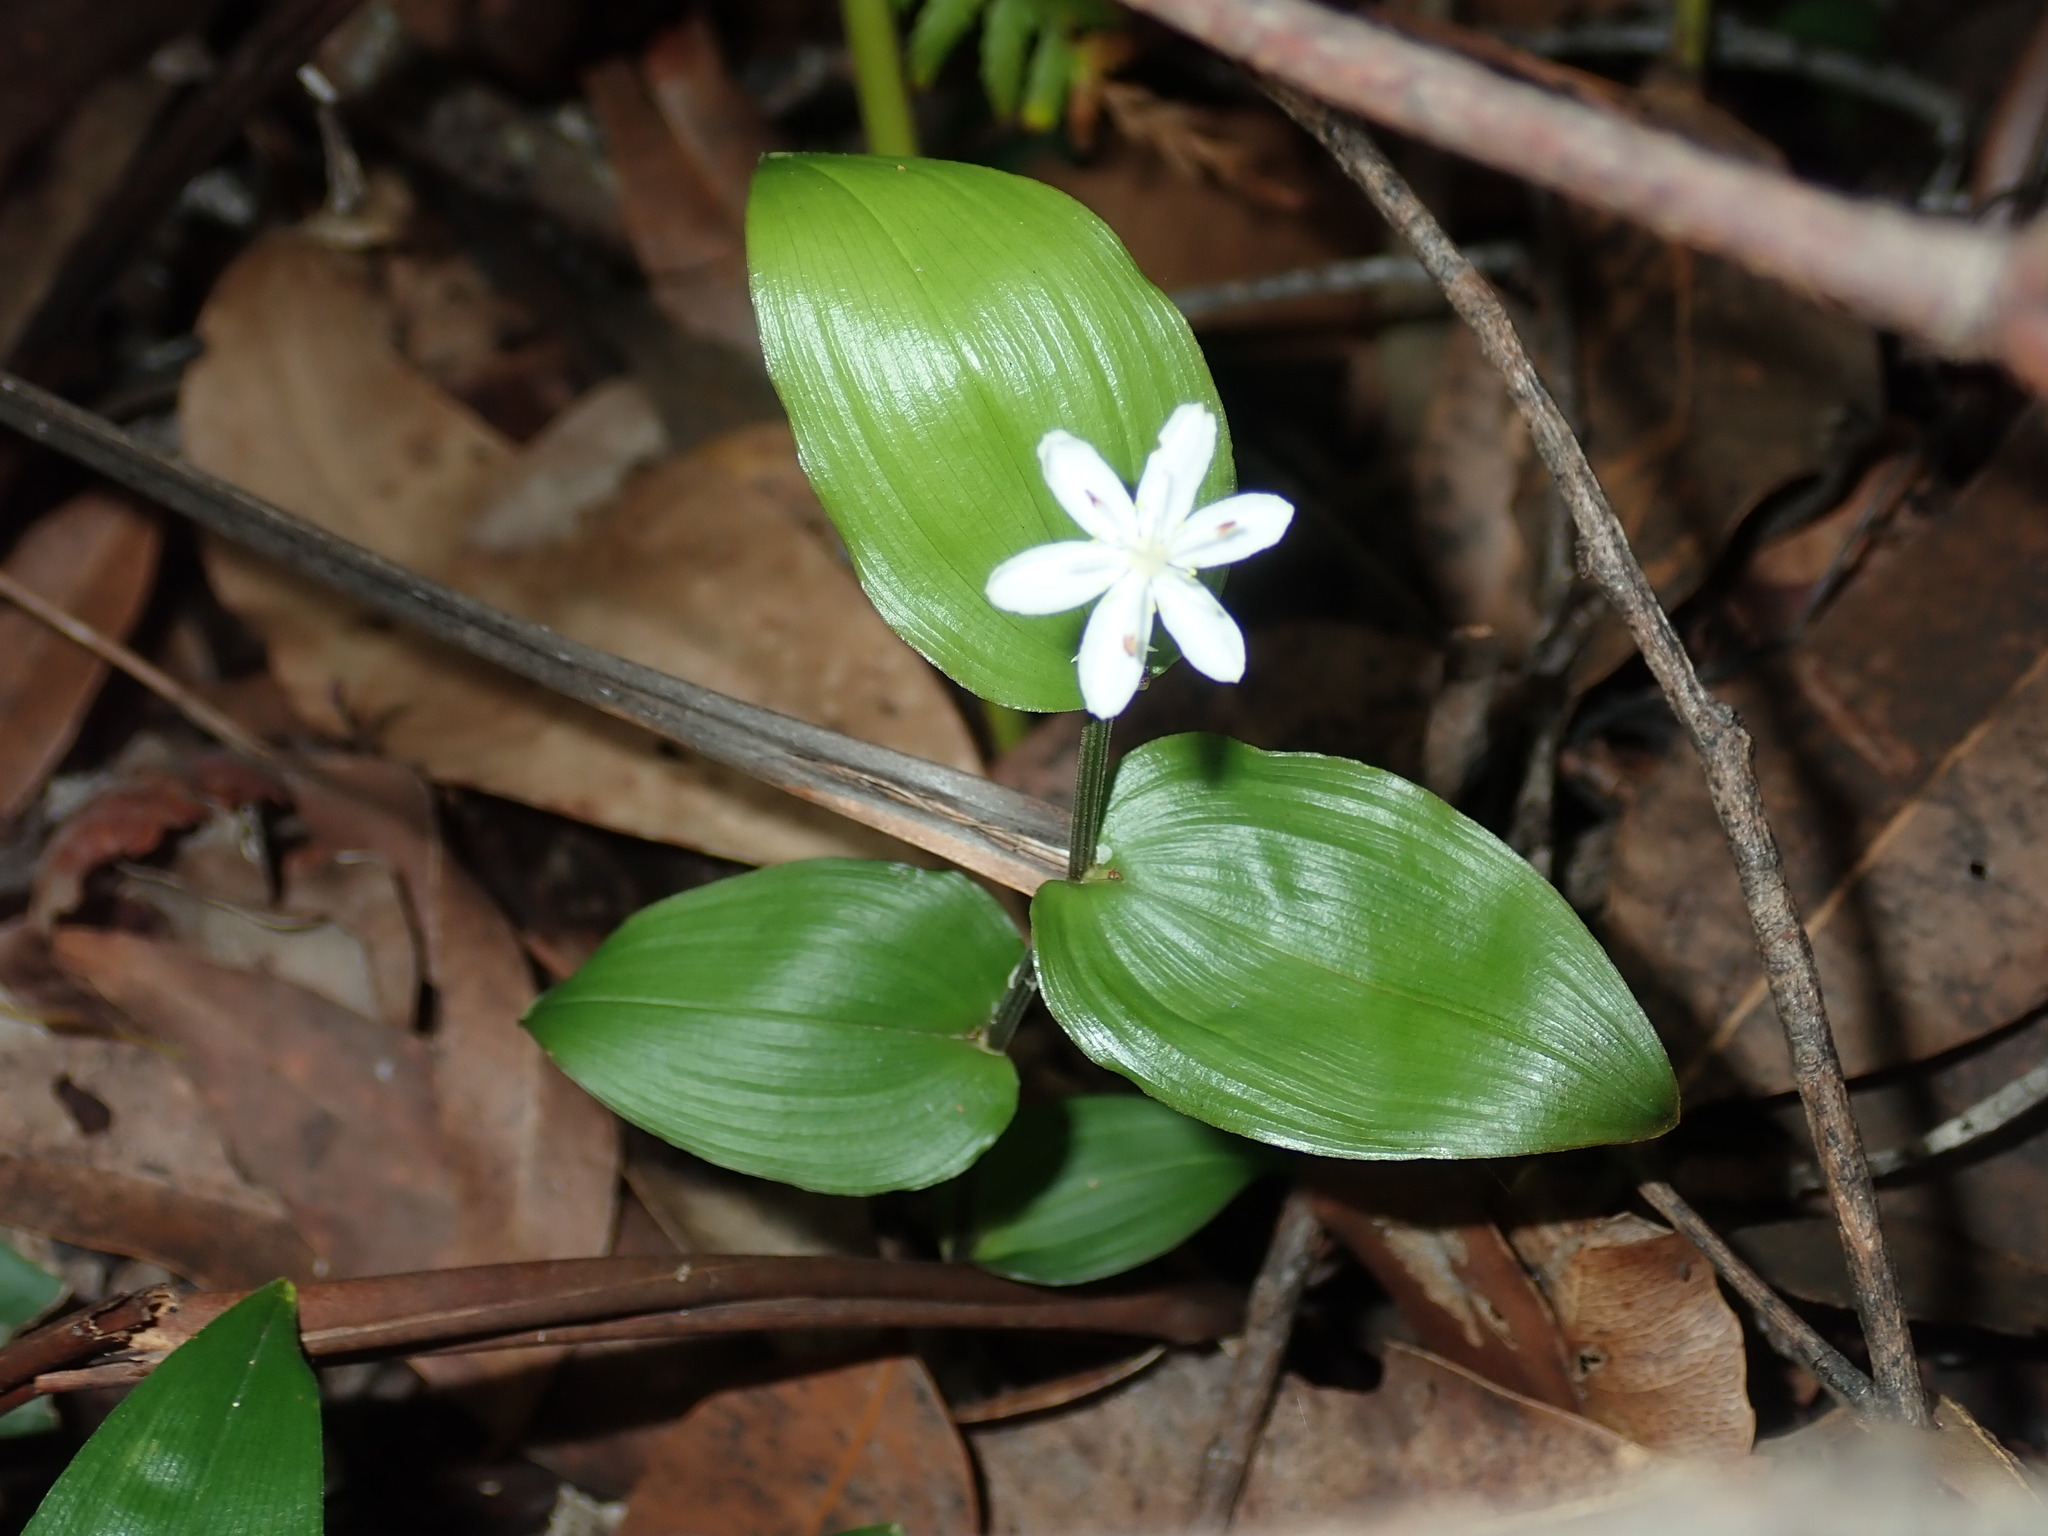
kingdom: Plantae
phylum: Tracheophyta
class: Liliopsida
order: Liliales
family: Colchicaceae
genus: Tripladenia
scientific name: Tripladenia cunninghamii
